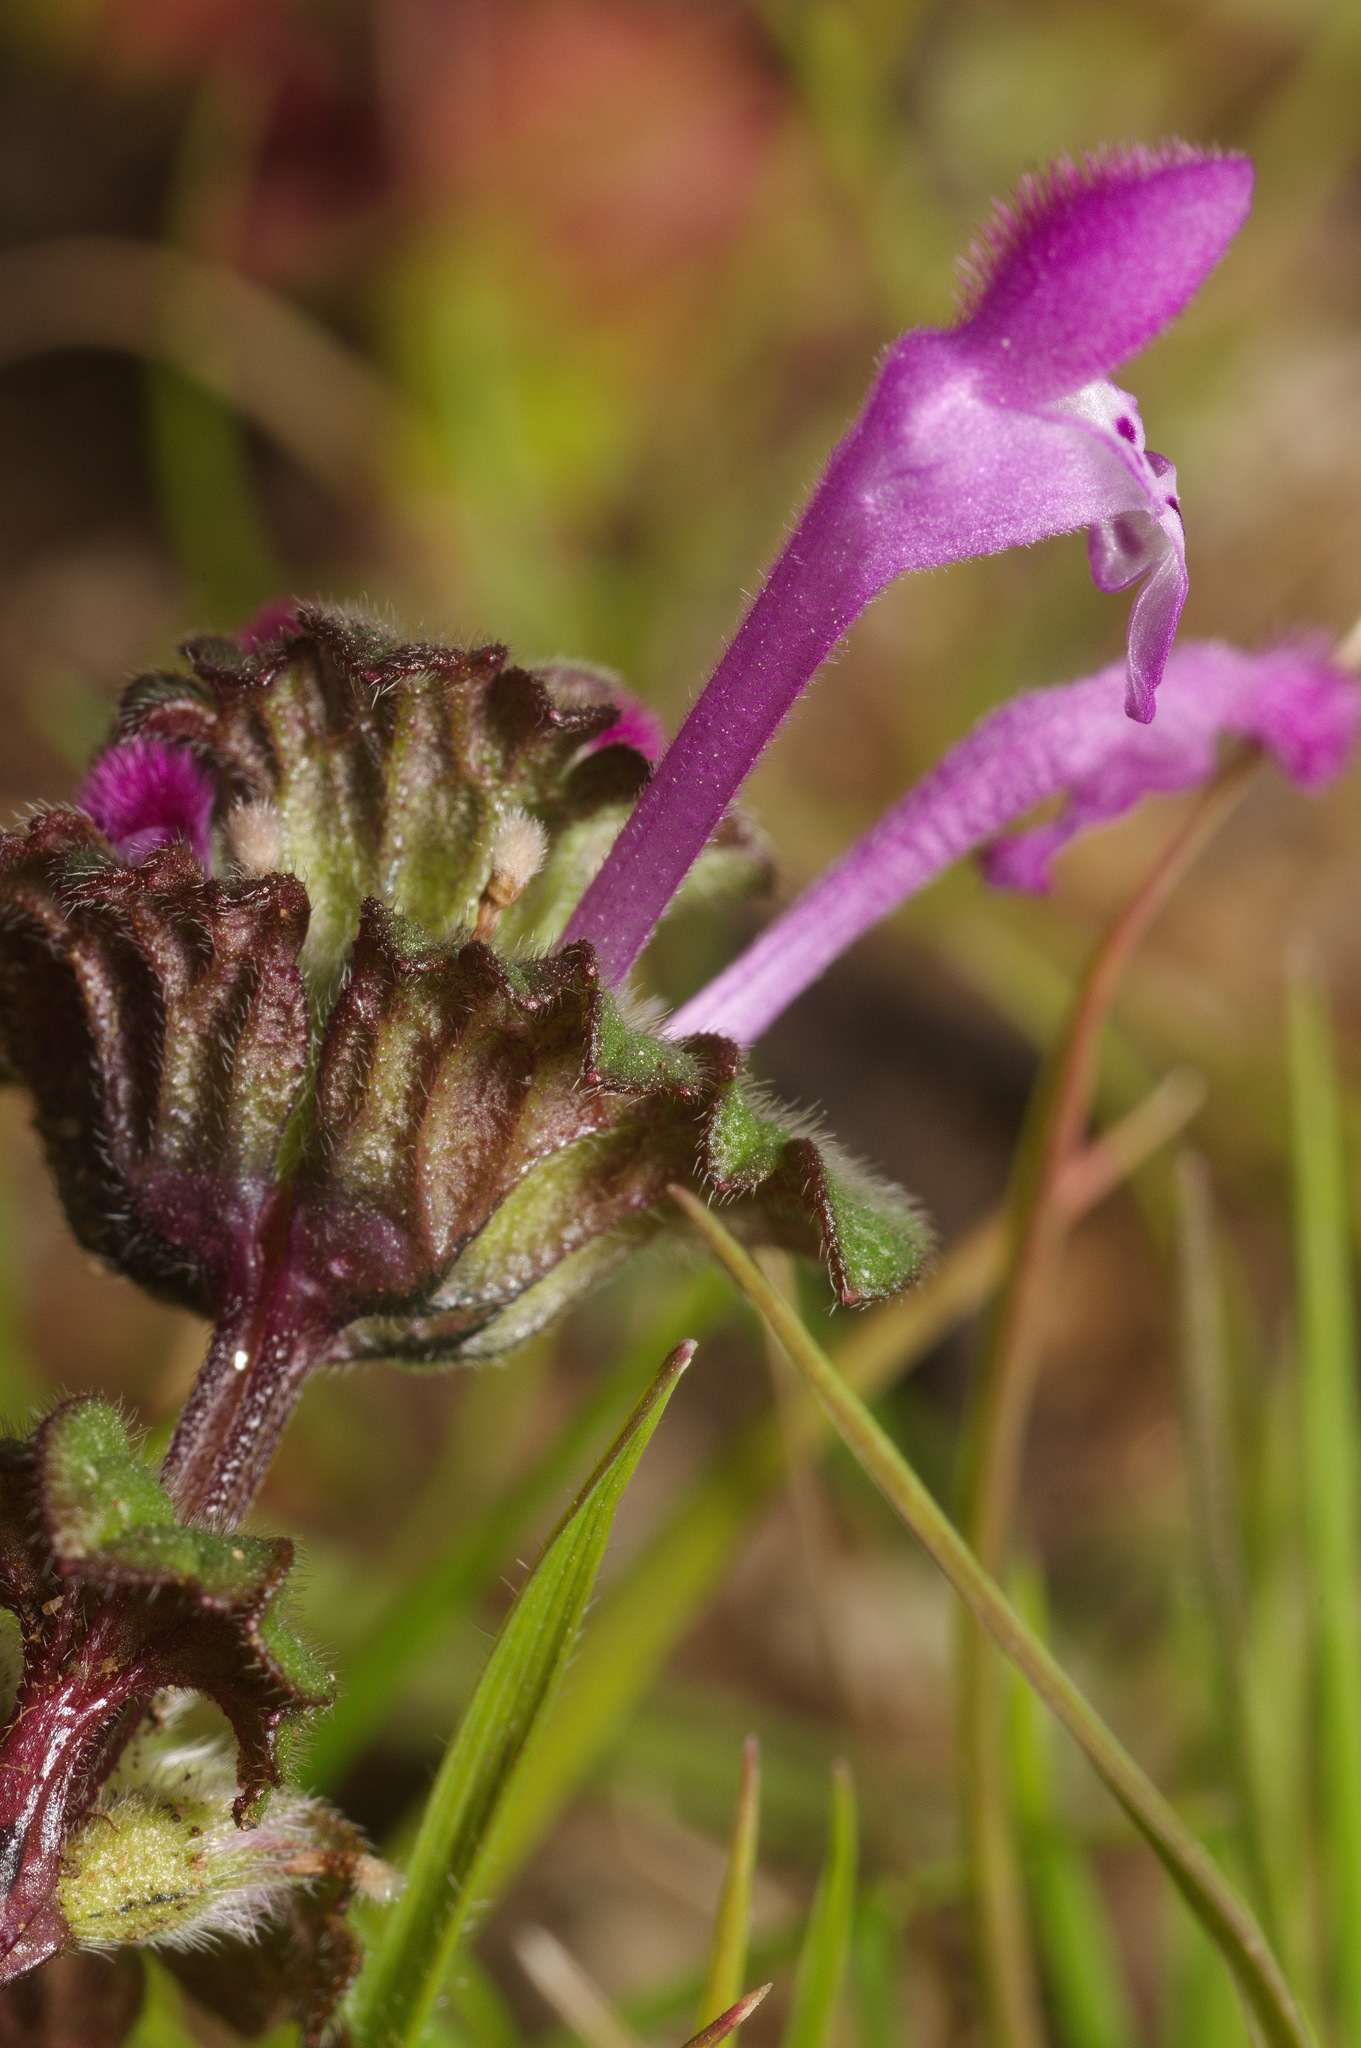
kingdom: Plantae
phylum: Tracheophyta
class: Magnoliopsida
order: Lamiales
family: Lamiaceae
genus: Lamium
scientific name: Lamium amplexicaule
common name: Henbit dead-nettle
